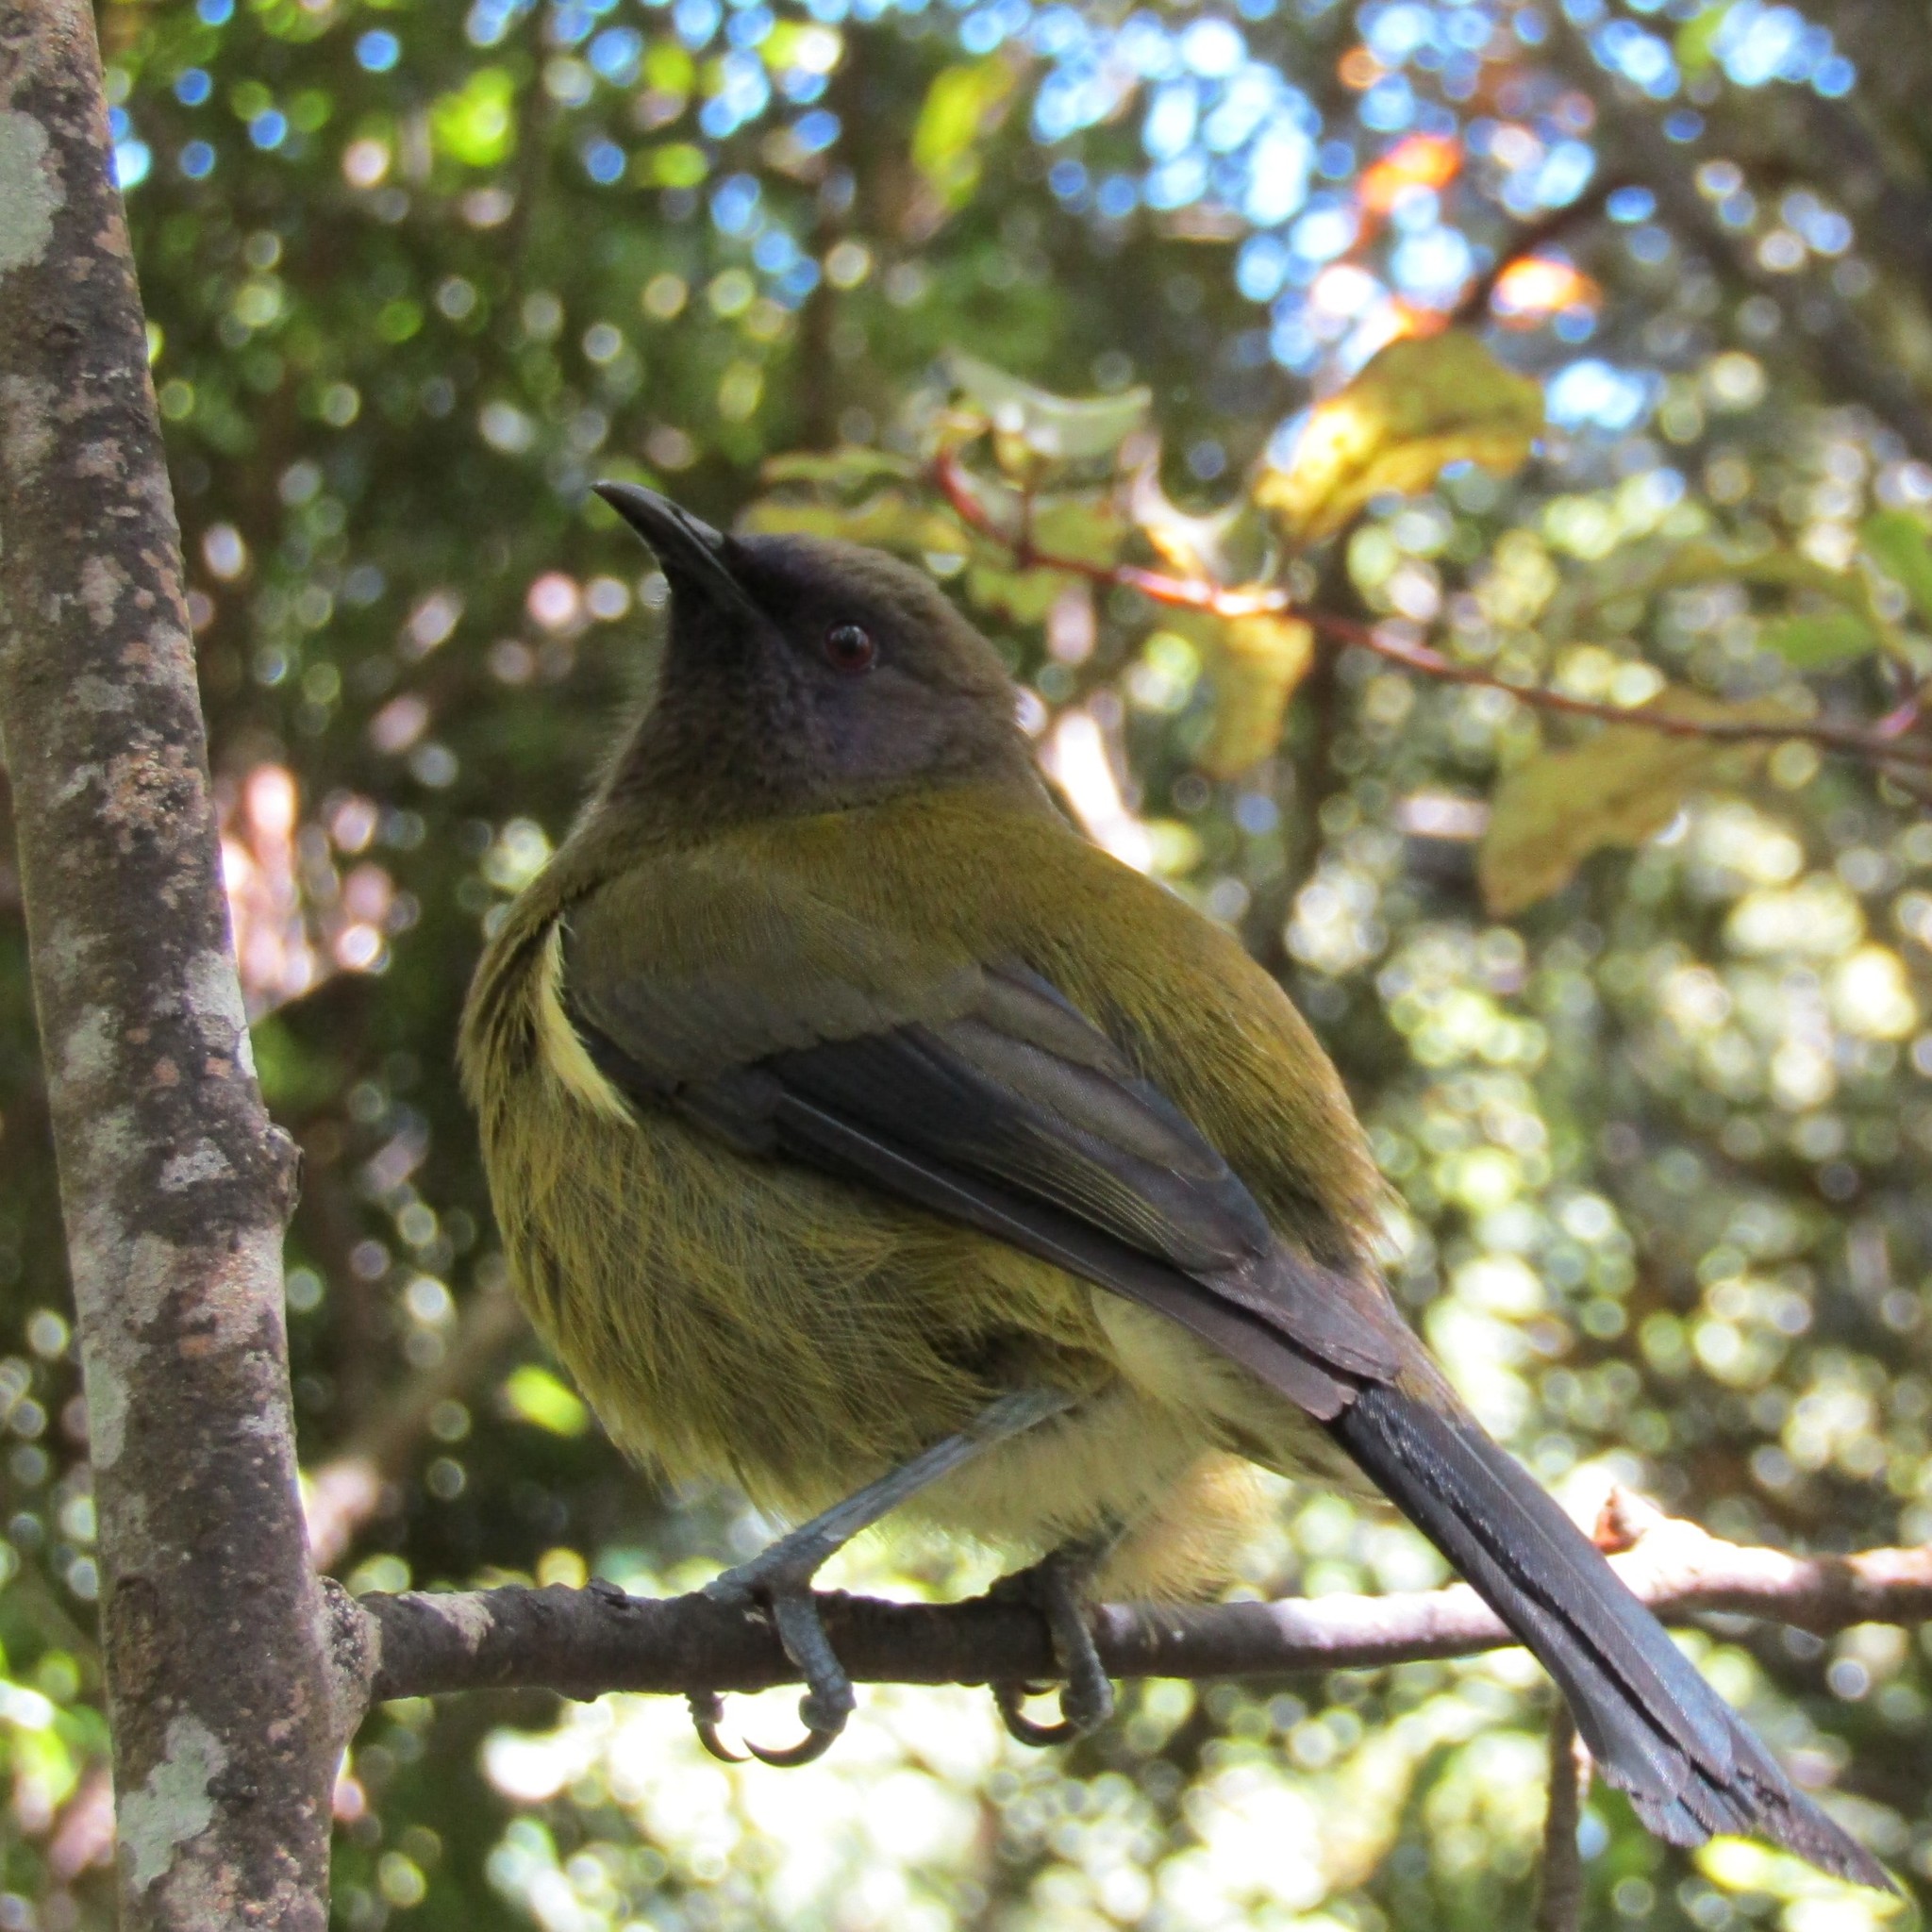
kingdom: Animalia
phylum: Chordata
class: Aves
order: Passeriformes
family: Meliphagidae
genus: Anthornis
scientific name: Anthornis melanura
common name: New zealand bellbird
